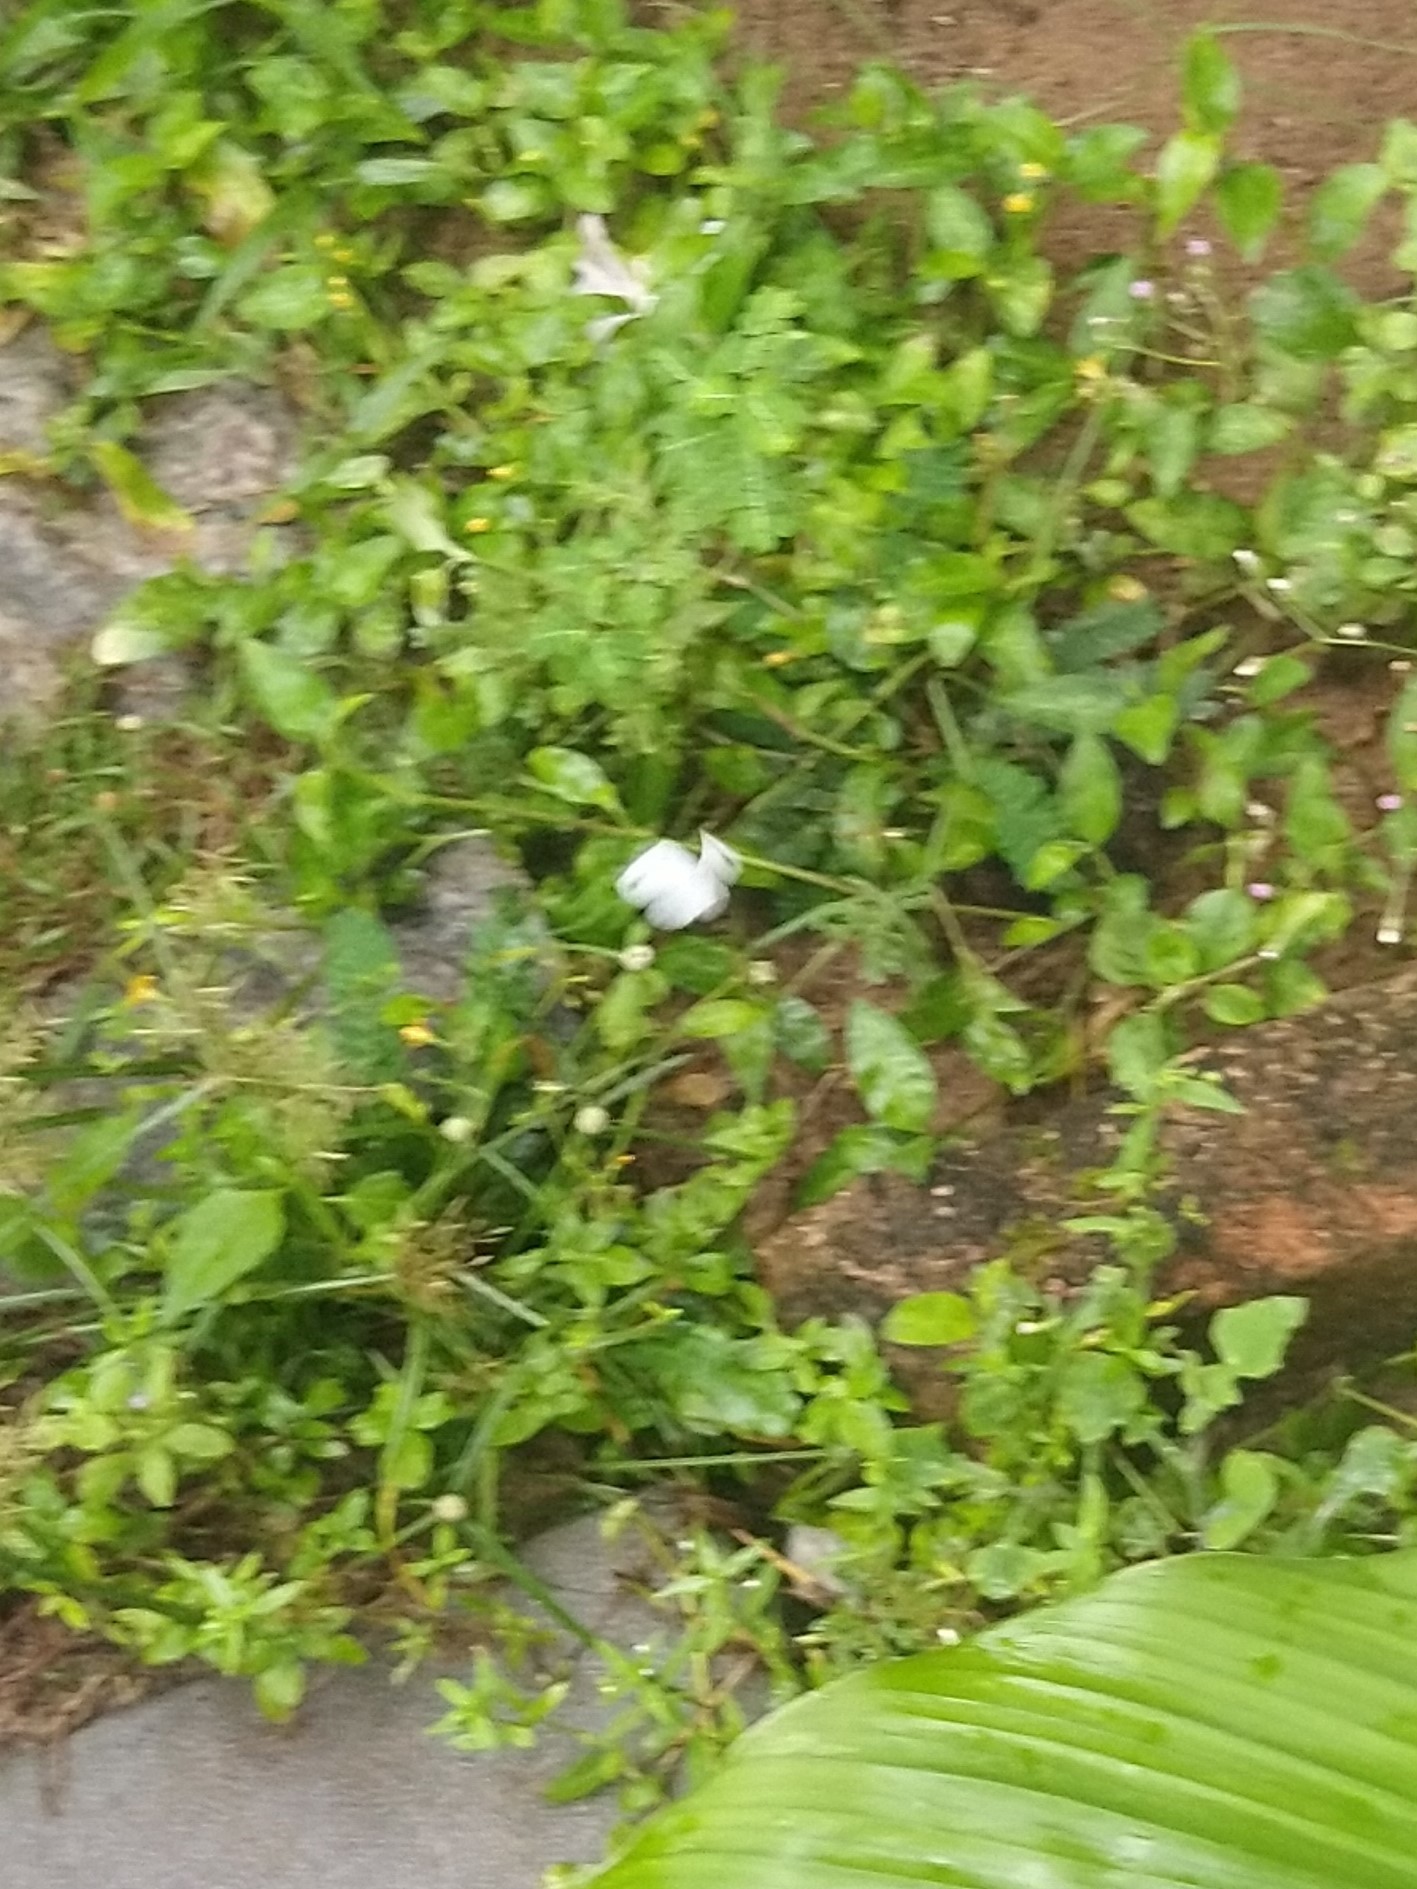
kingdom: Animalia
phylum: Arthropoda
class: Insecta
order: Lepidoptera
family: Pieridae
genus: Leptosia
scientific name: Leptosia nina
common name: Psyche
